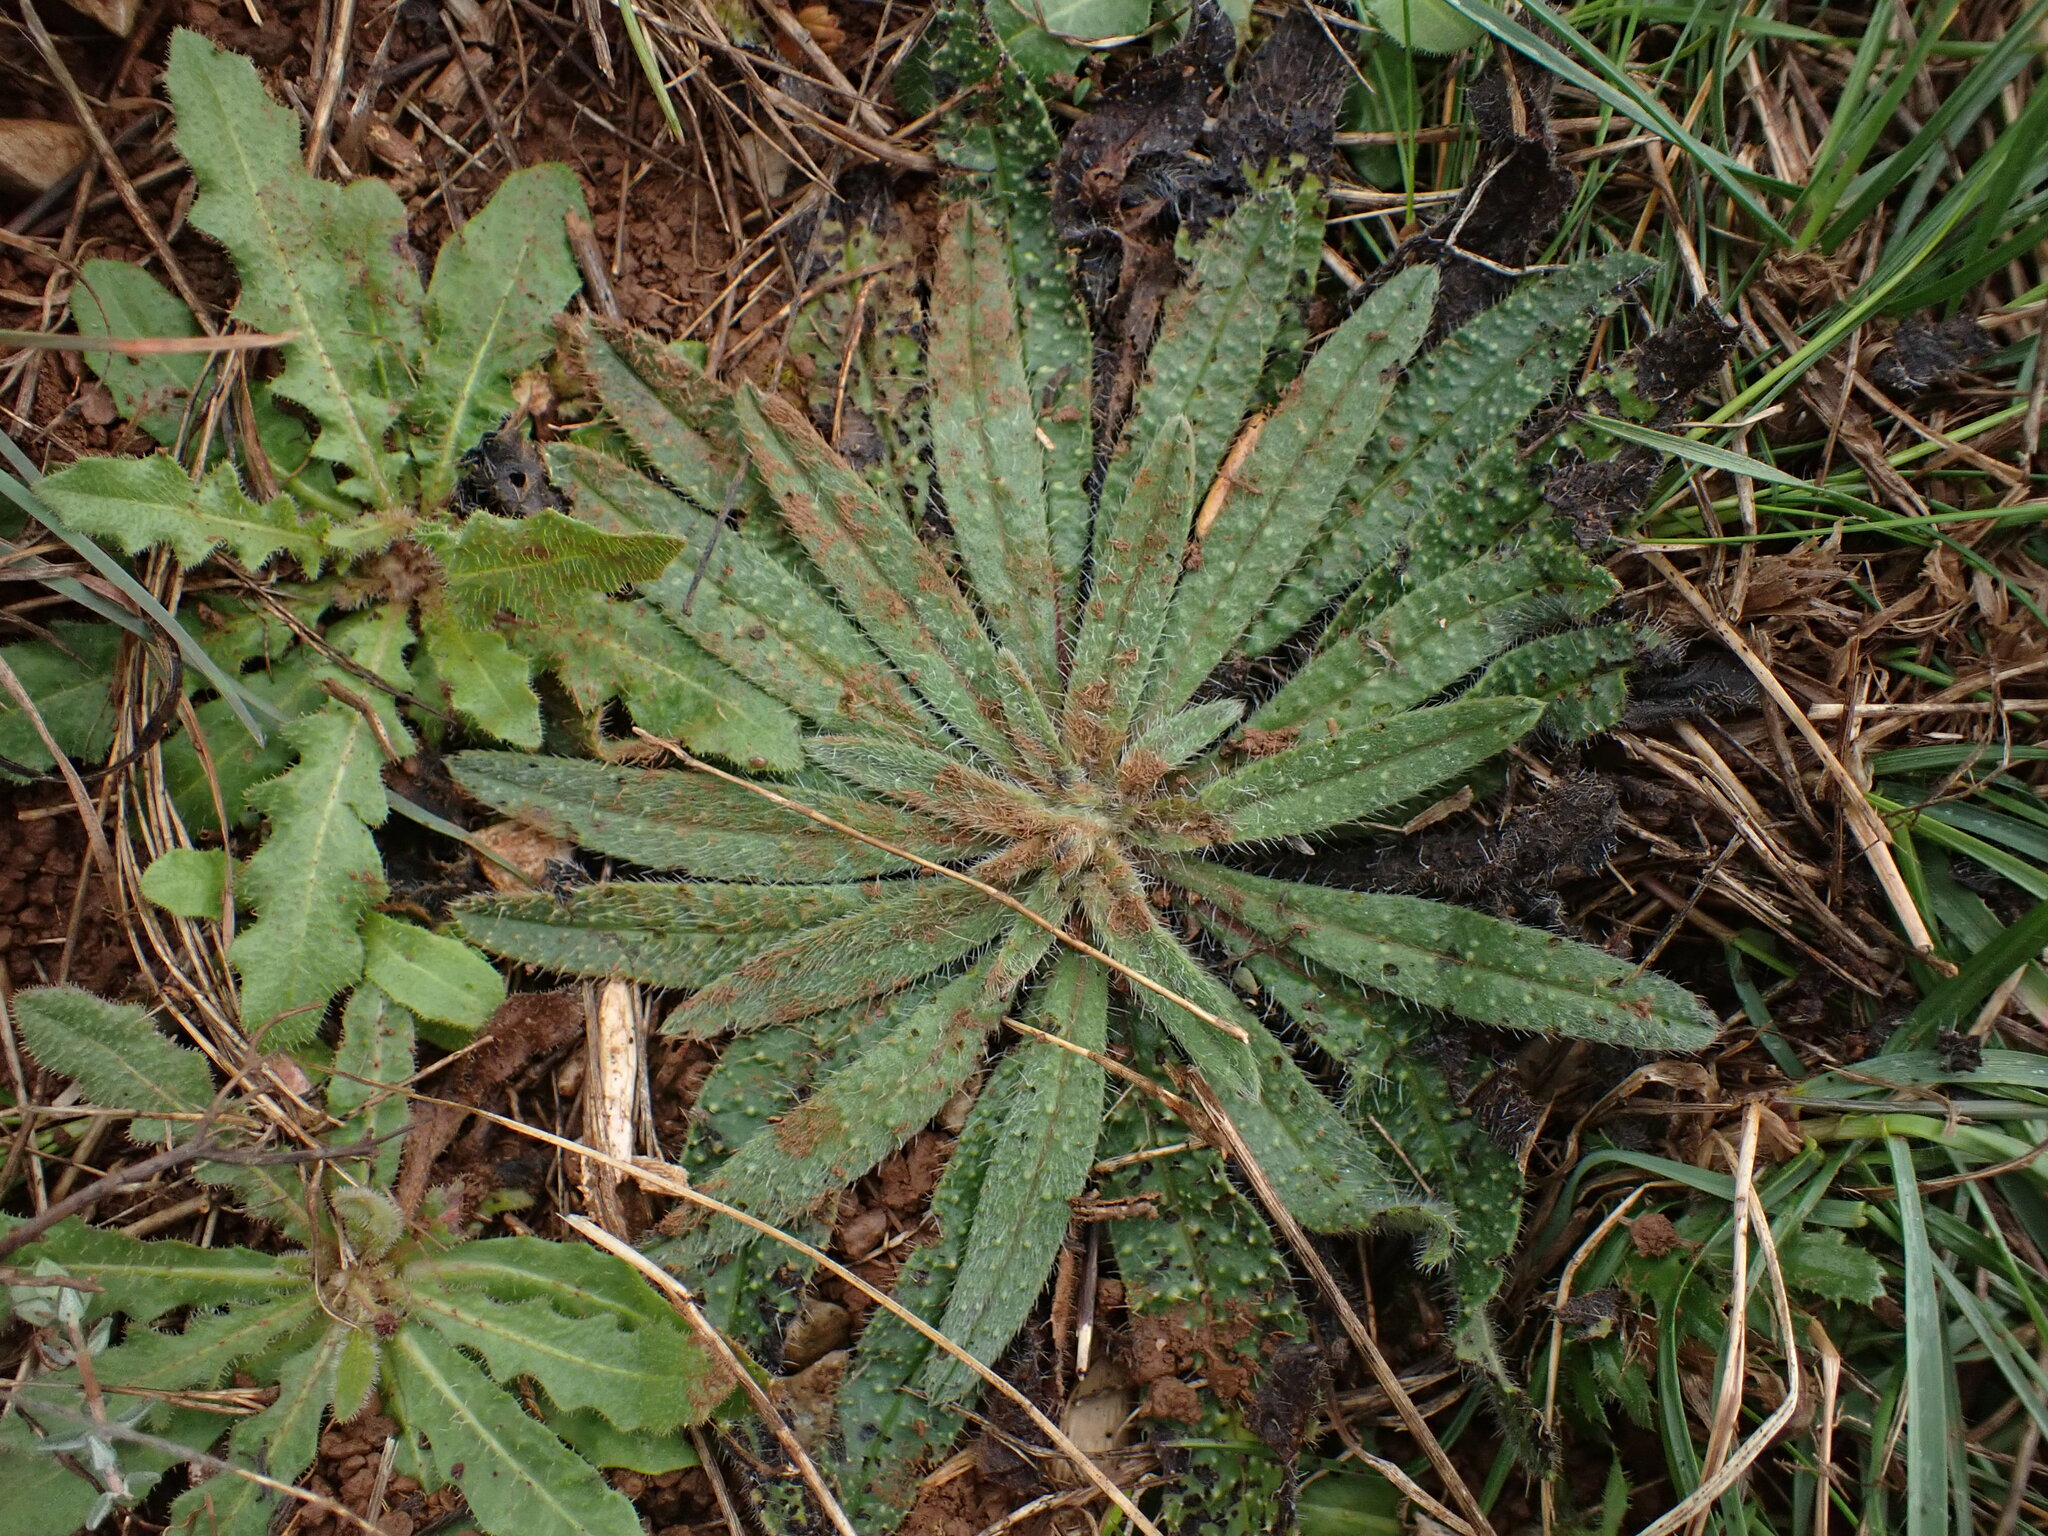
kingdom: Plantae
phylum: Tracheophyta
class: Magnoliopsida
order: Boraginales
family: Boraginaceae
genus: Echium
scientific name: Echium vulgare
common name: Common viper's bugloss
